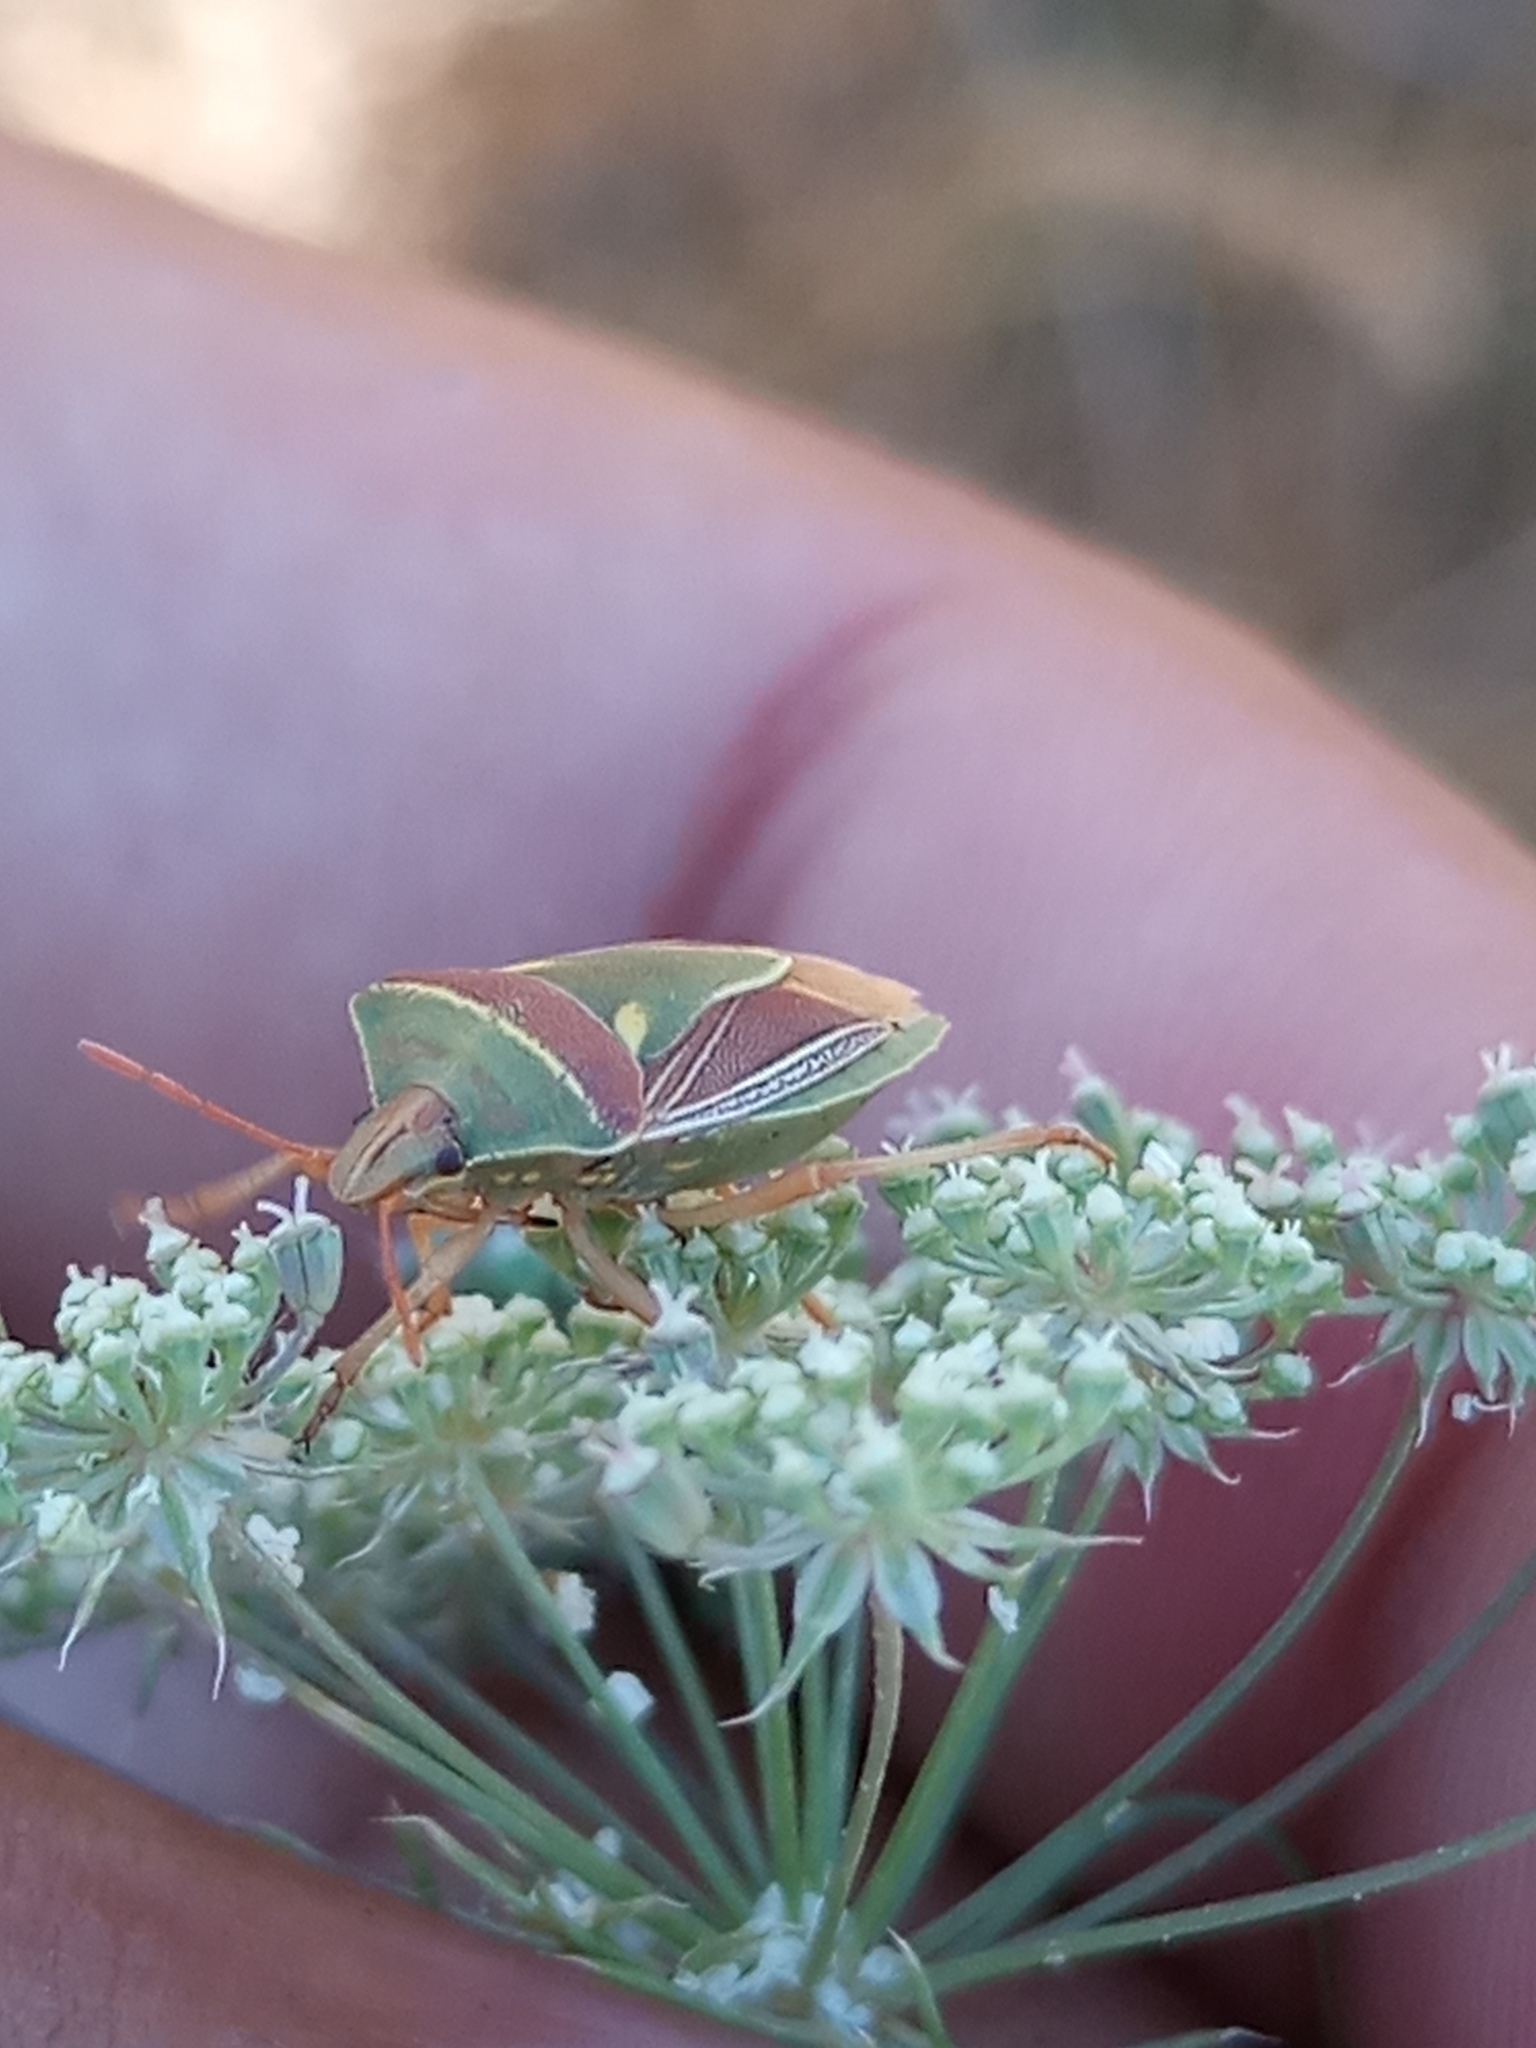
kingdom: Animalia
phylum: Arthropoda
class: Insecta
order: Hemiptera
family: Pentatomidae
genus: Acledra
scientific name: Acledra
